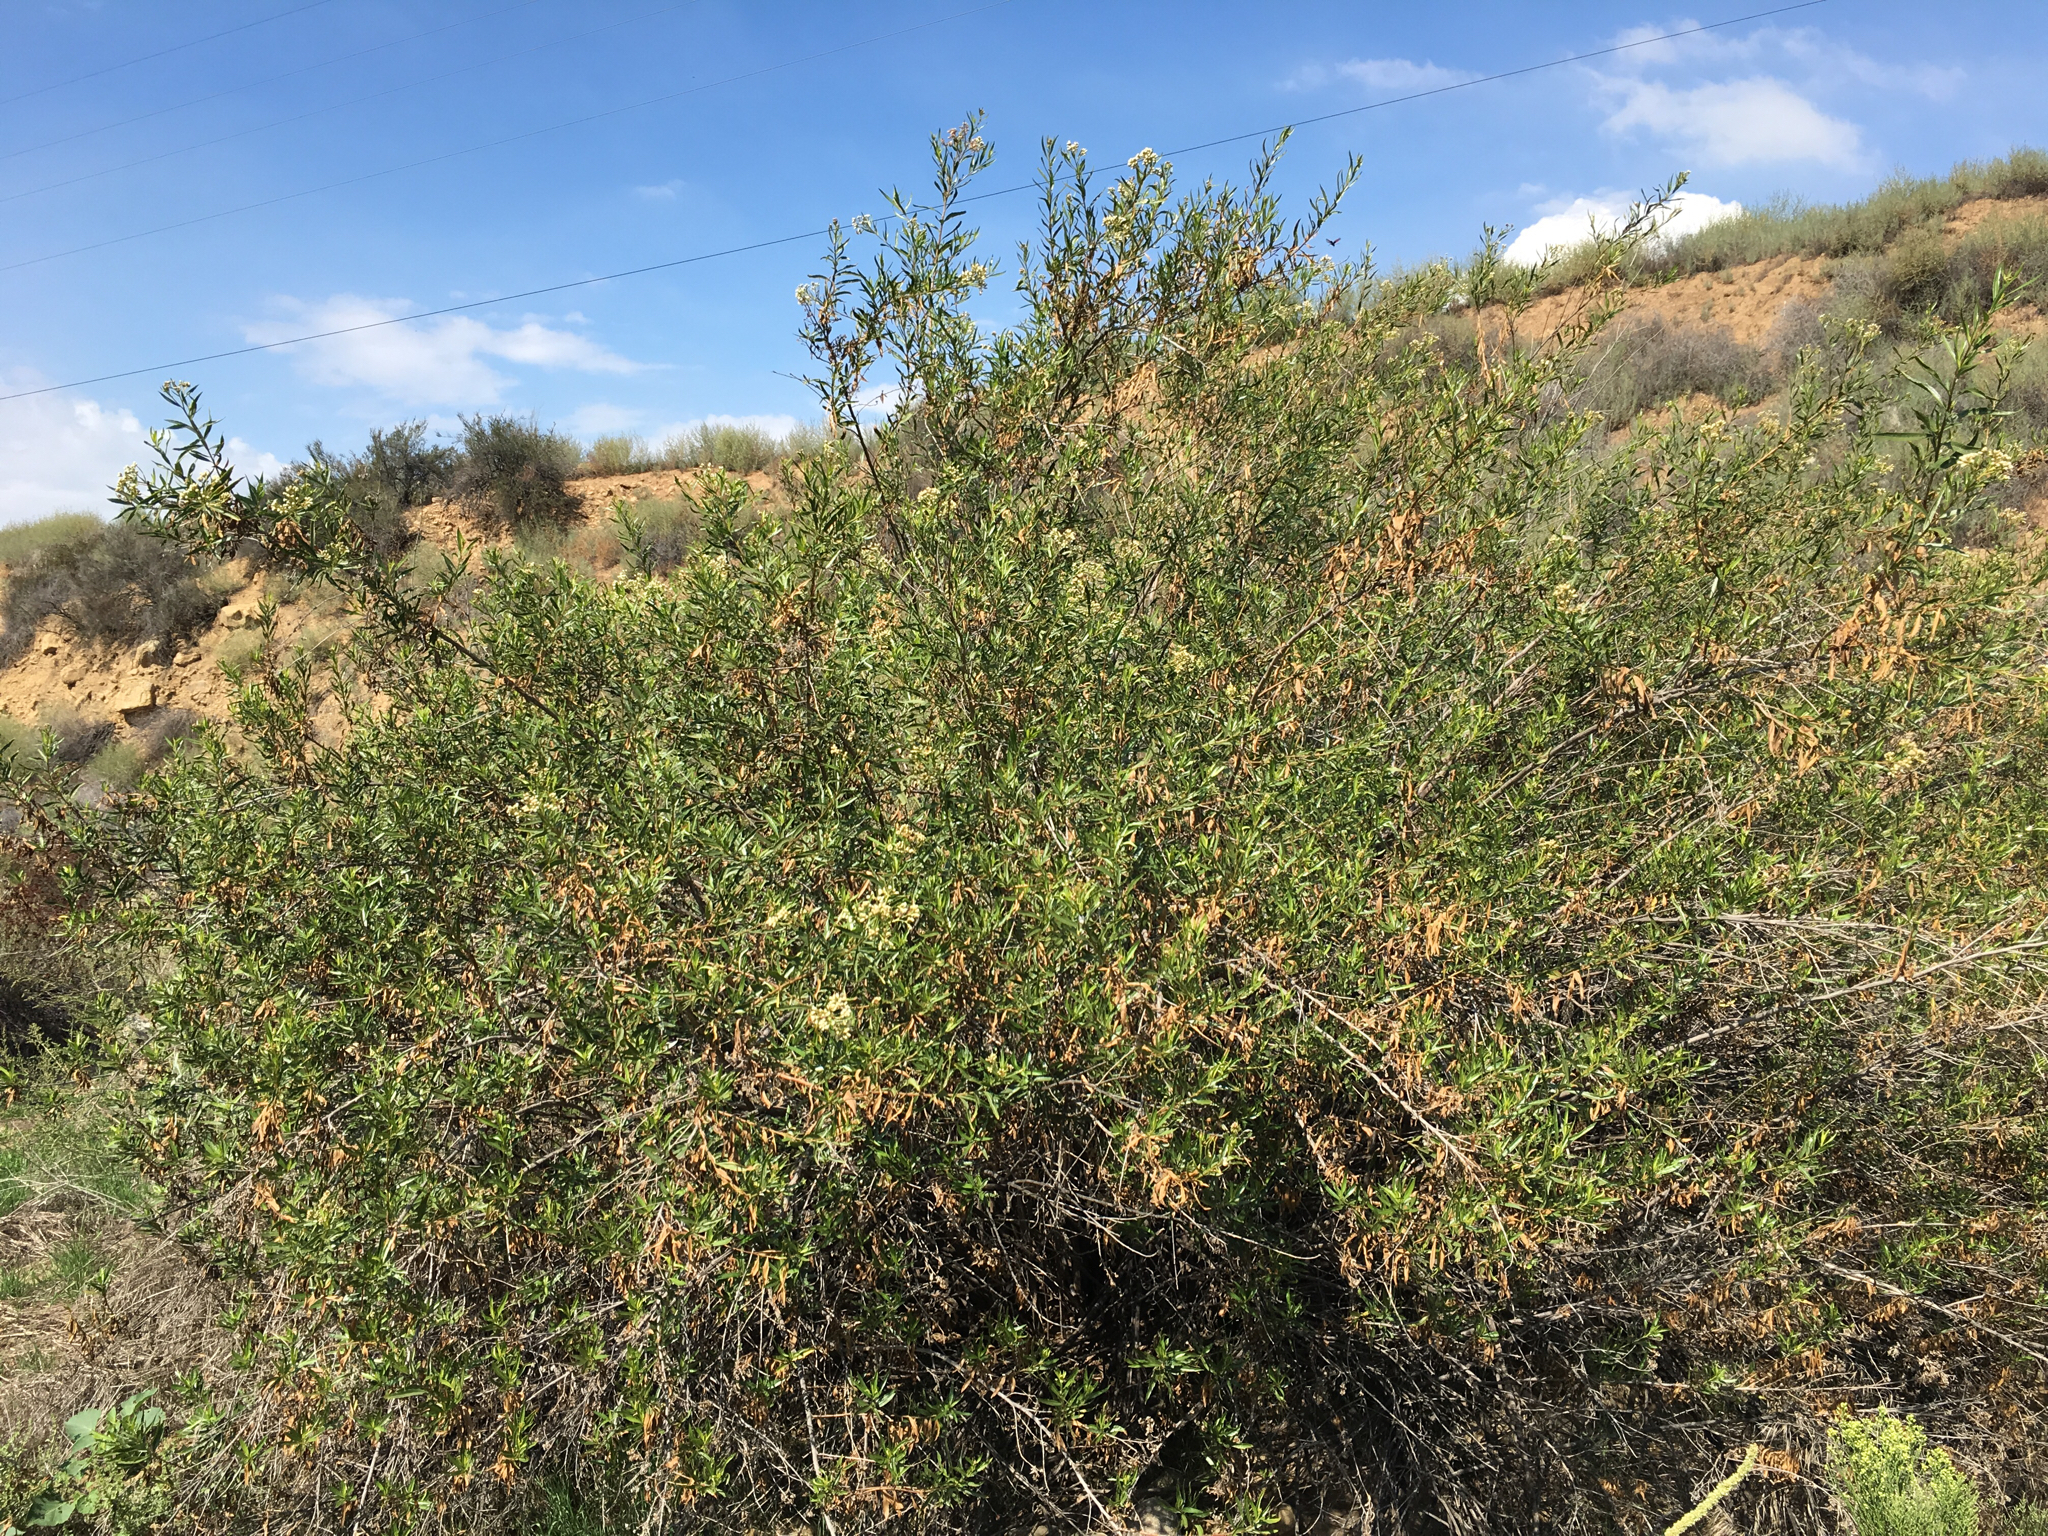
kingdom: Plantae
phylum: Tracheophyta
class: Magnoliopsida
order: Asterales
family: Asteraceae
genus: Baccharis
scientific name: Baccharis salicifolia
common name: Sticky baccharis
